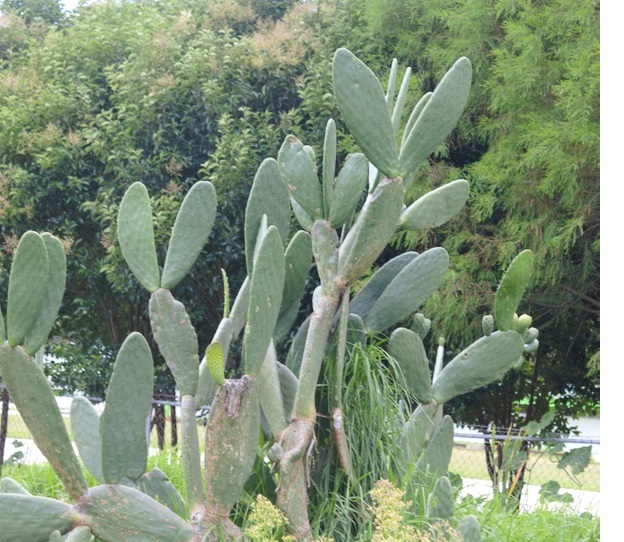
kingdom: Plantae
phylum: Tracheophyta
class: Magnoliopsida
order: Caryophyllales
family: Cactaceae
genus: Opuntia
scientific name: Opuntia ficus-indica
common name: Barbary fig
